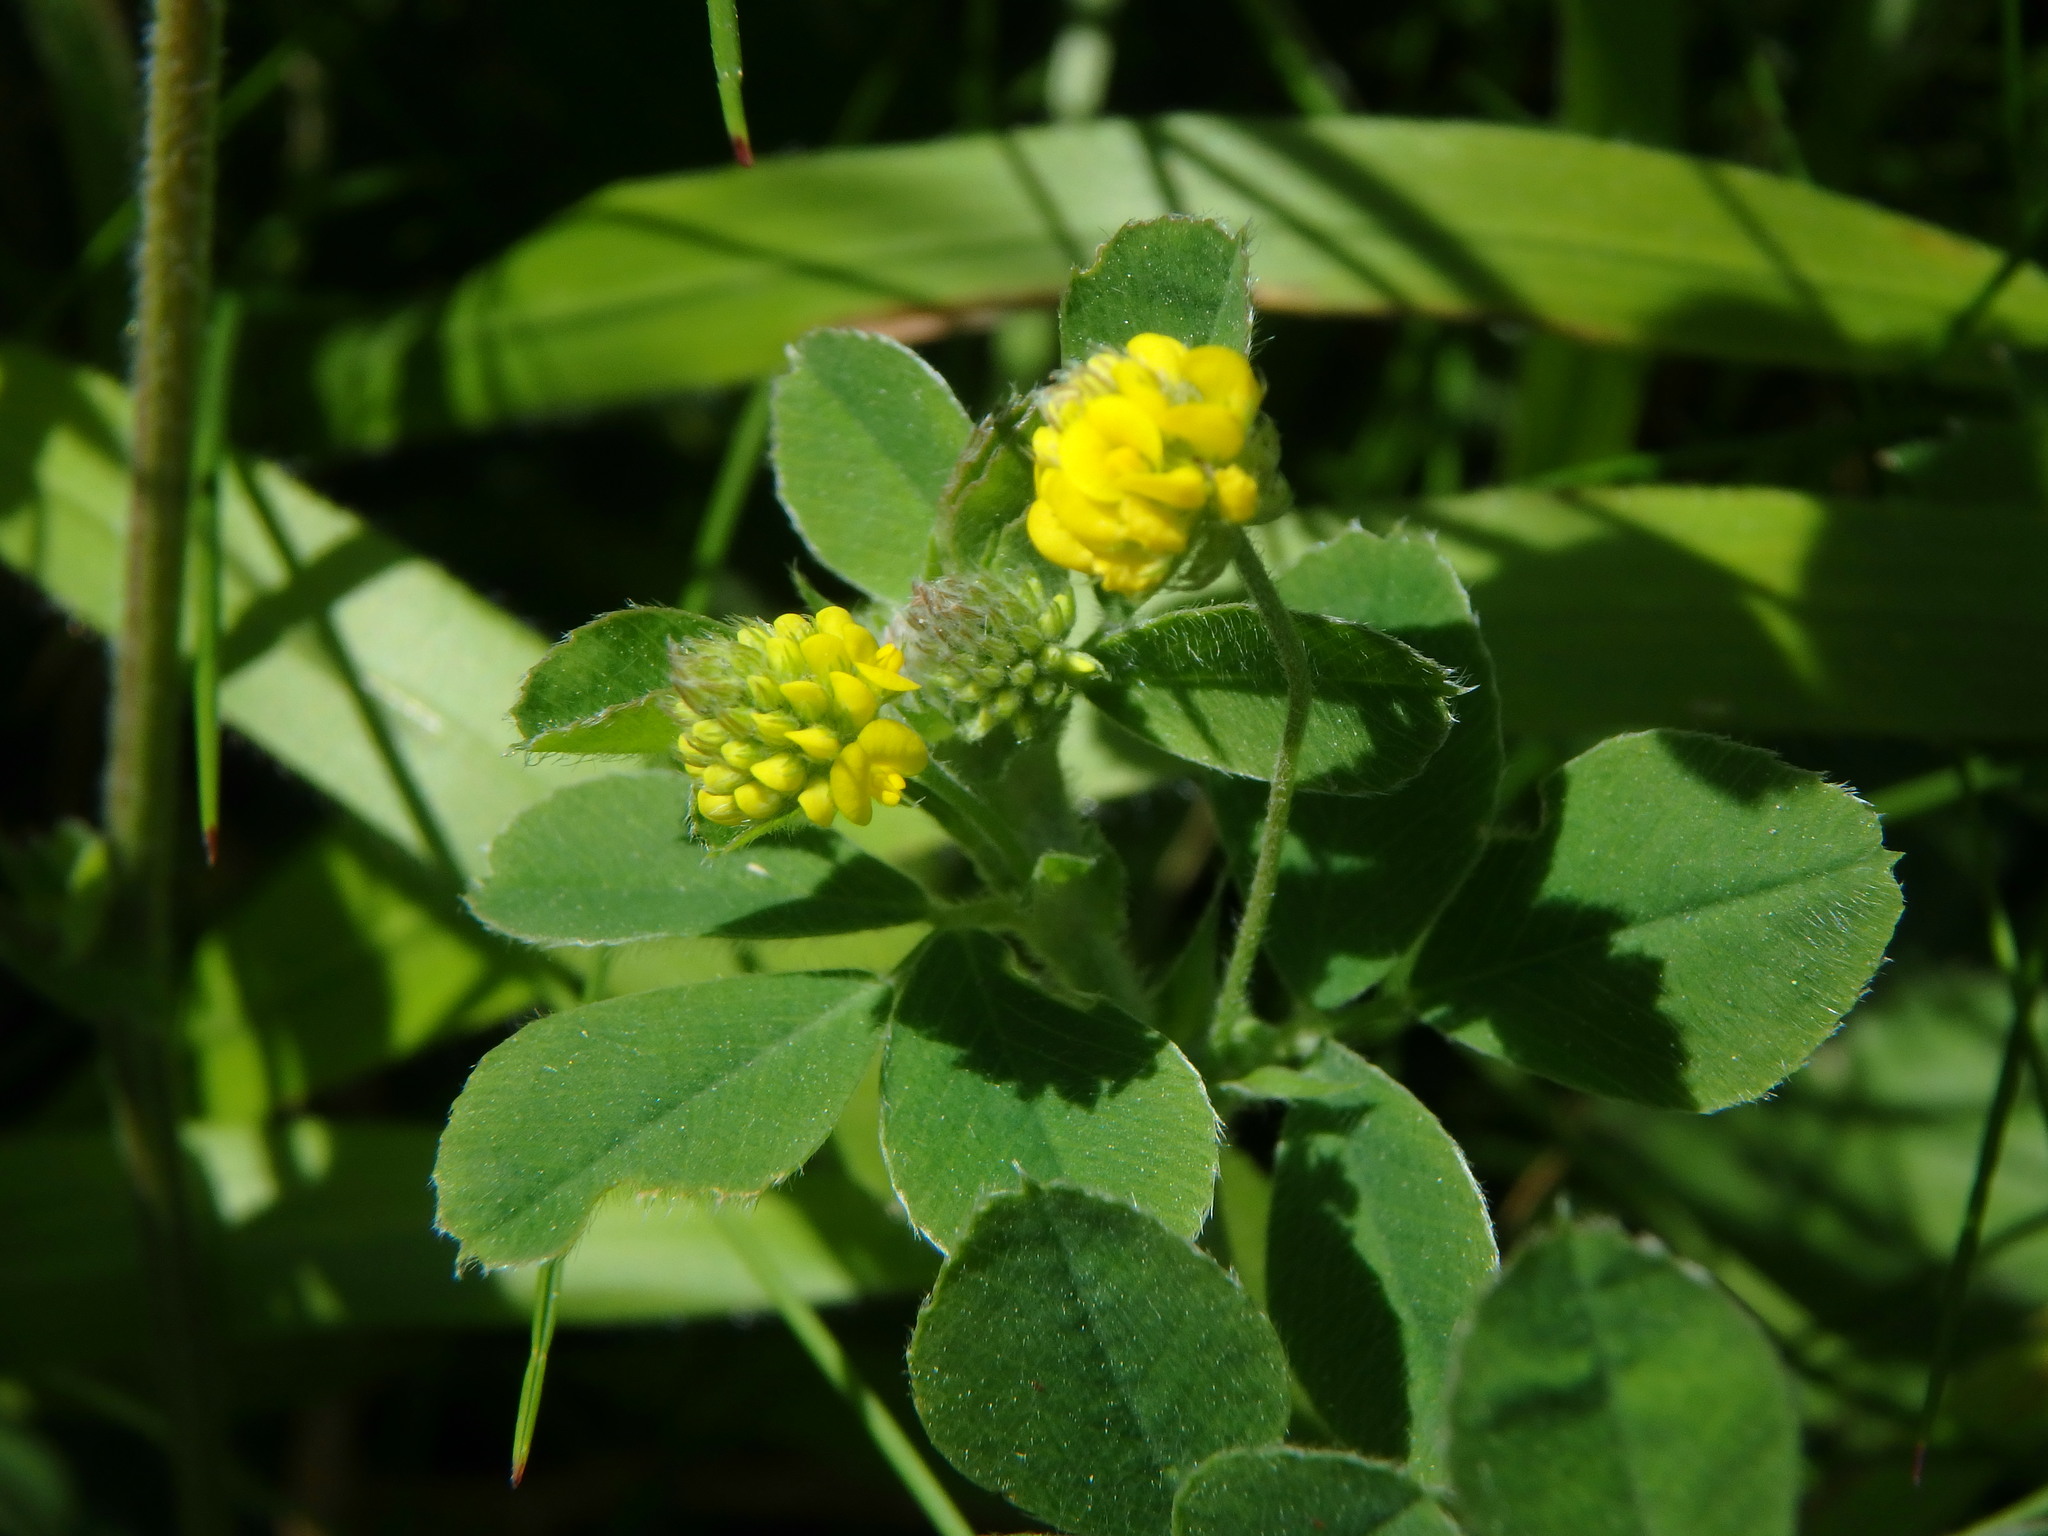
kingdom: Plantae
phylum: Tracheophyta
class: Magnoliopsida
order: Fabales
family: Fabaceae
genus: Medicago
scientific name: Medicago lupulina
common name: Black medick
